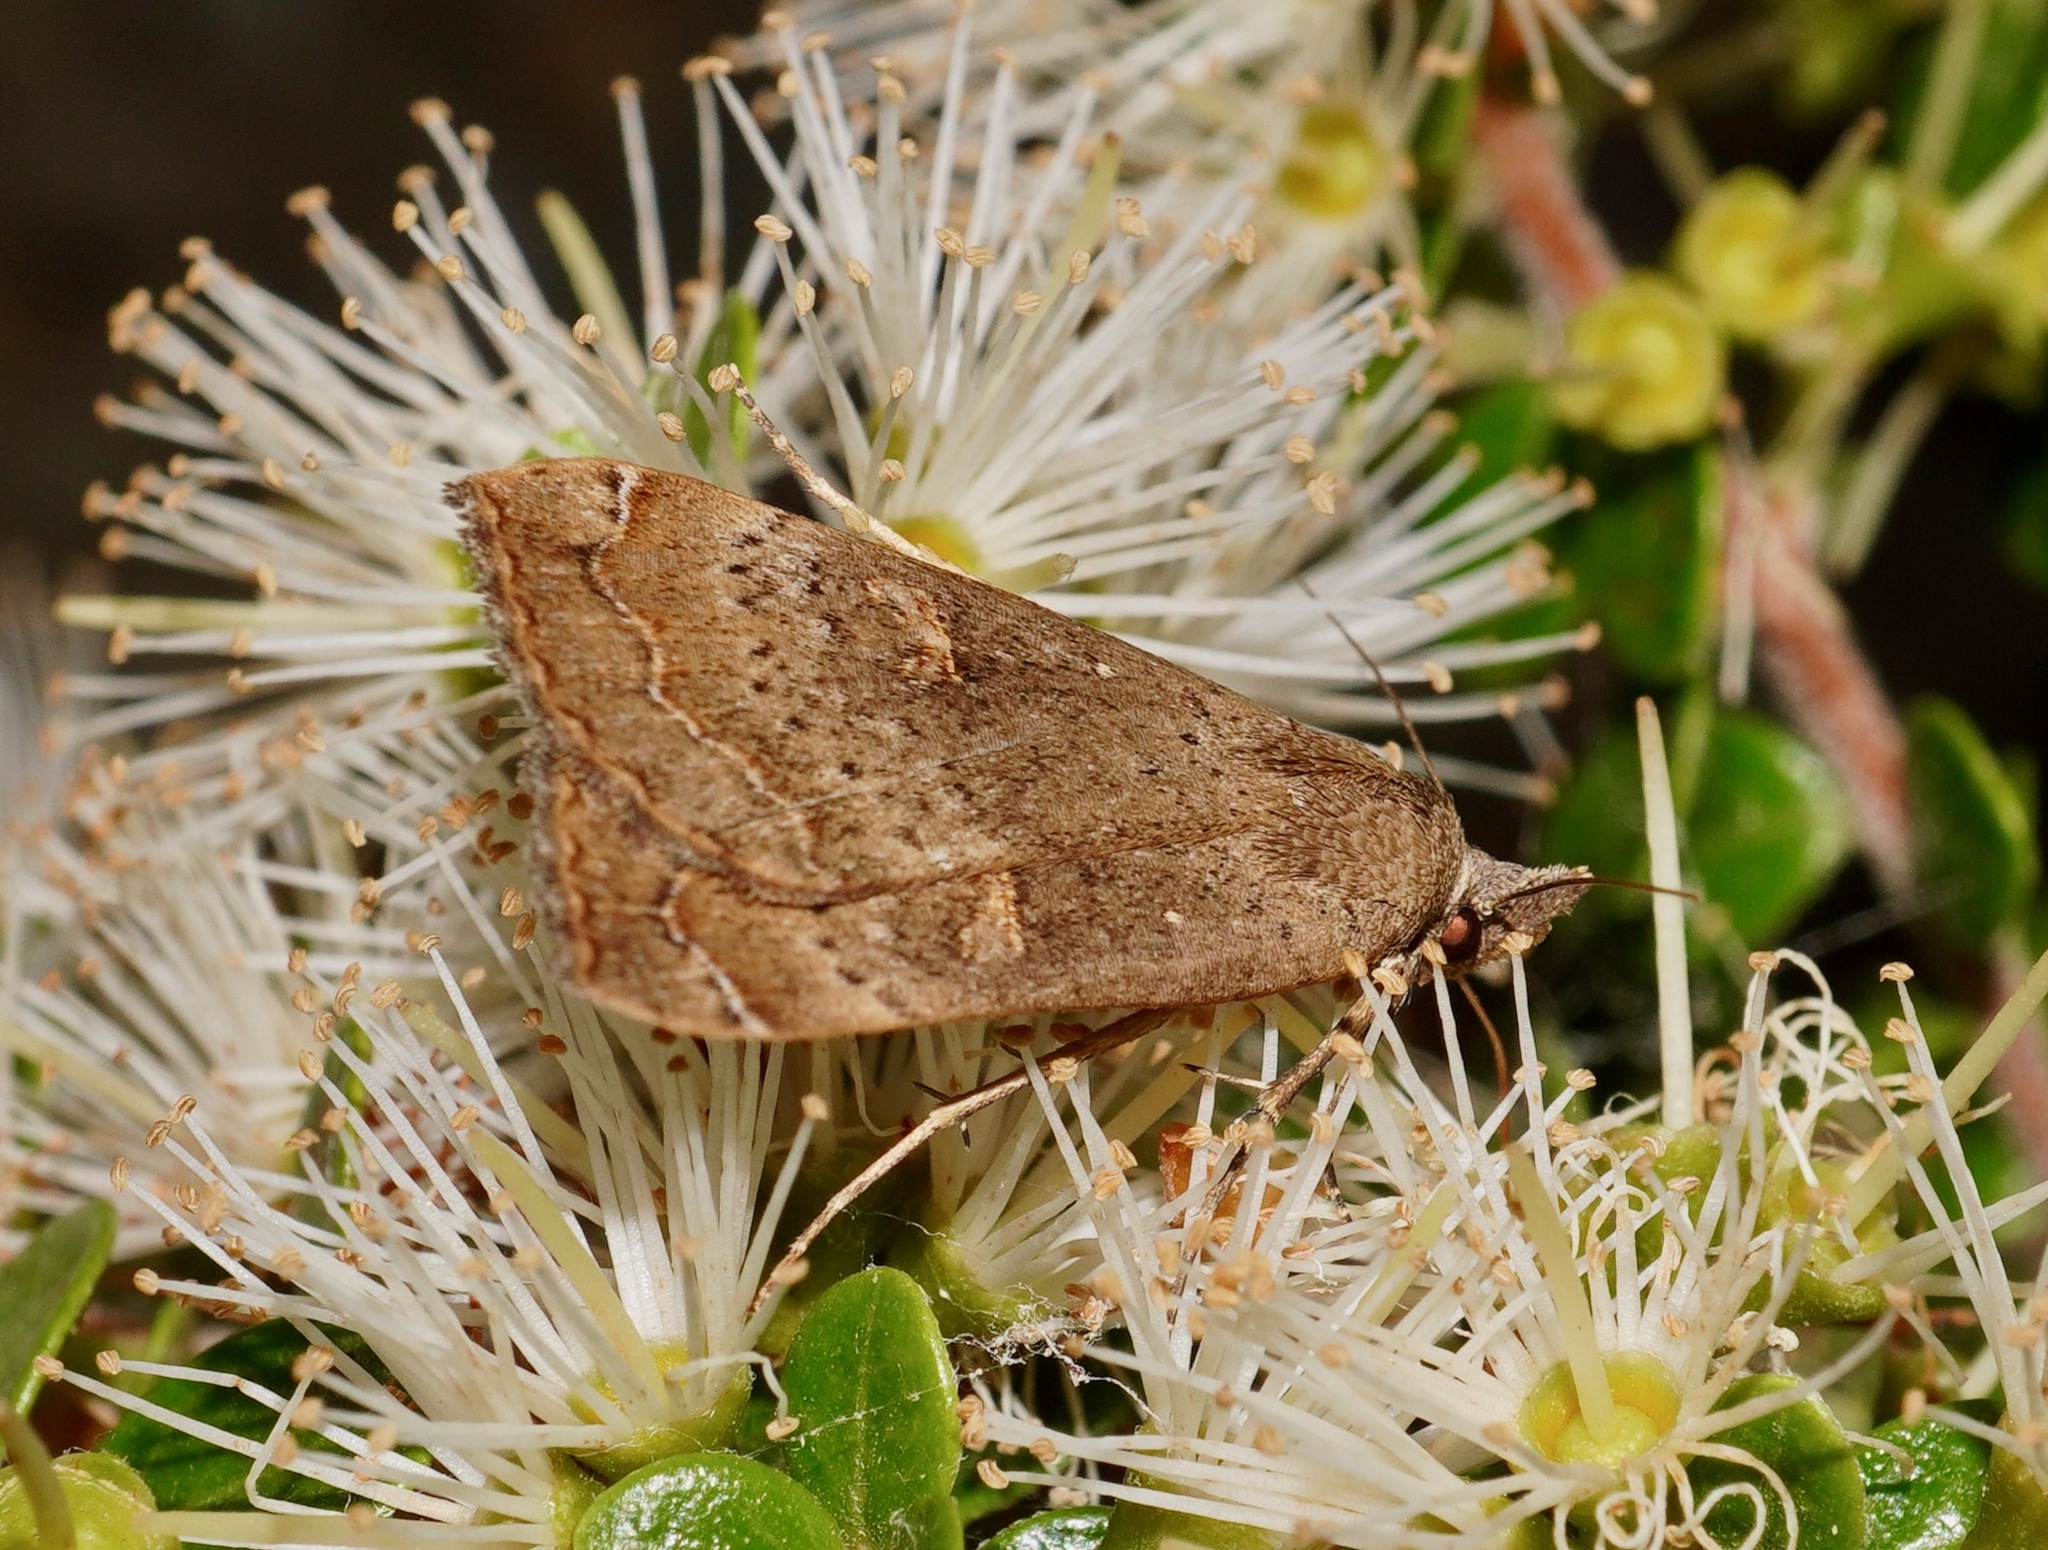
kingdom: Animalia
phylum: Arthropoda
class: Insecta
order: Lepidoptera
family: Erebidae
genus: Rhapsa
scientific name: Rhapsa scotosialis
